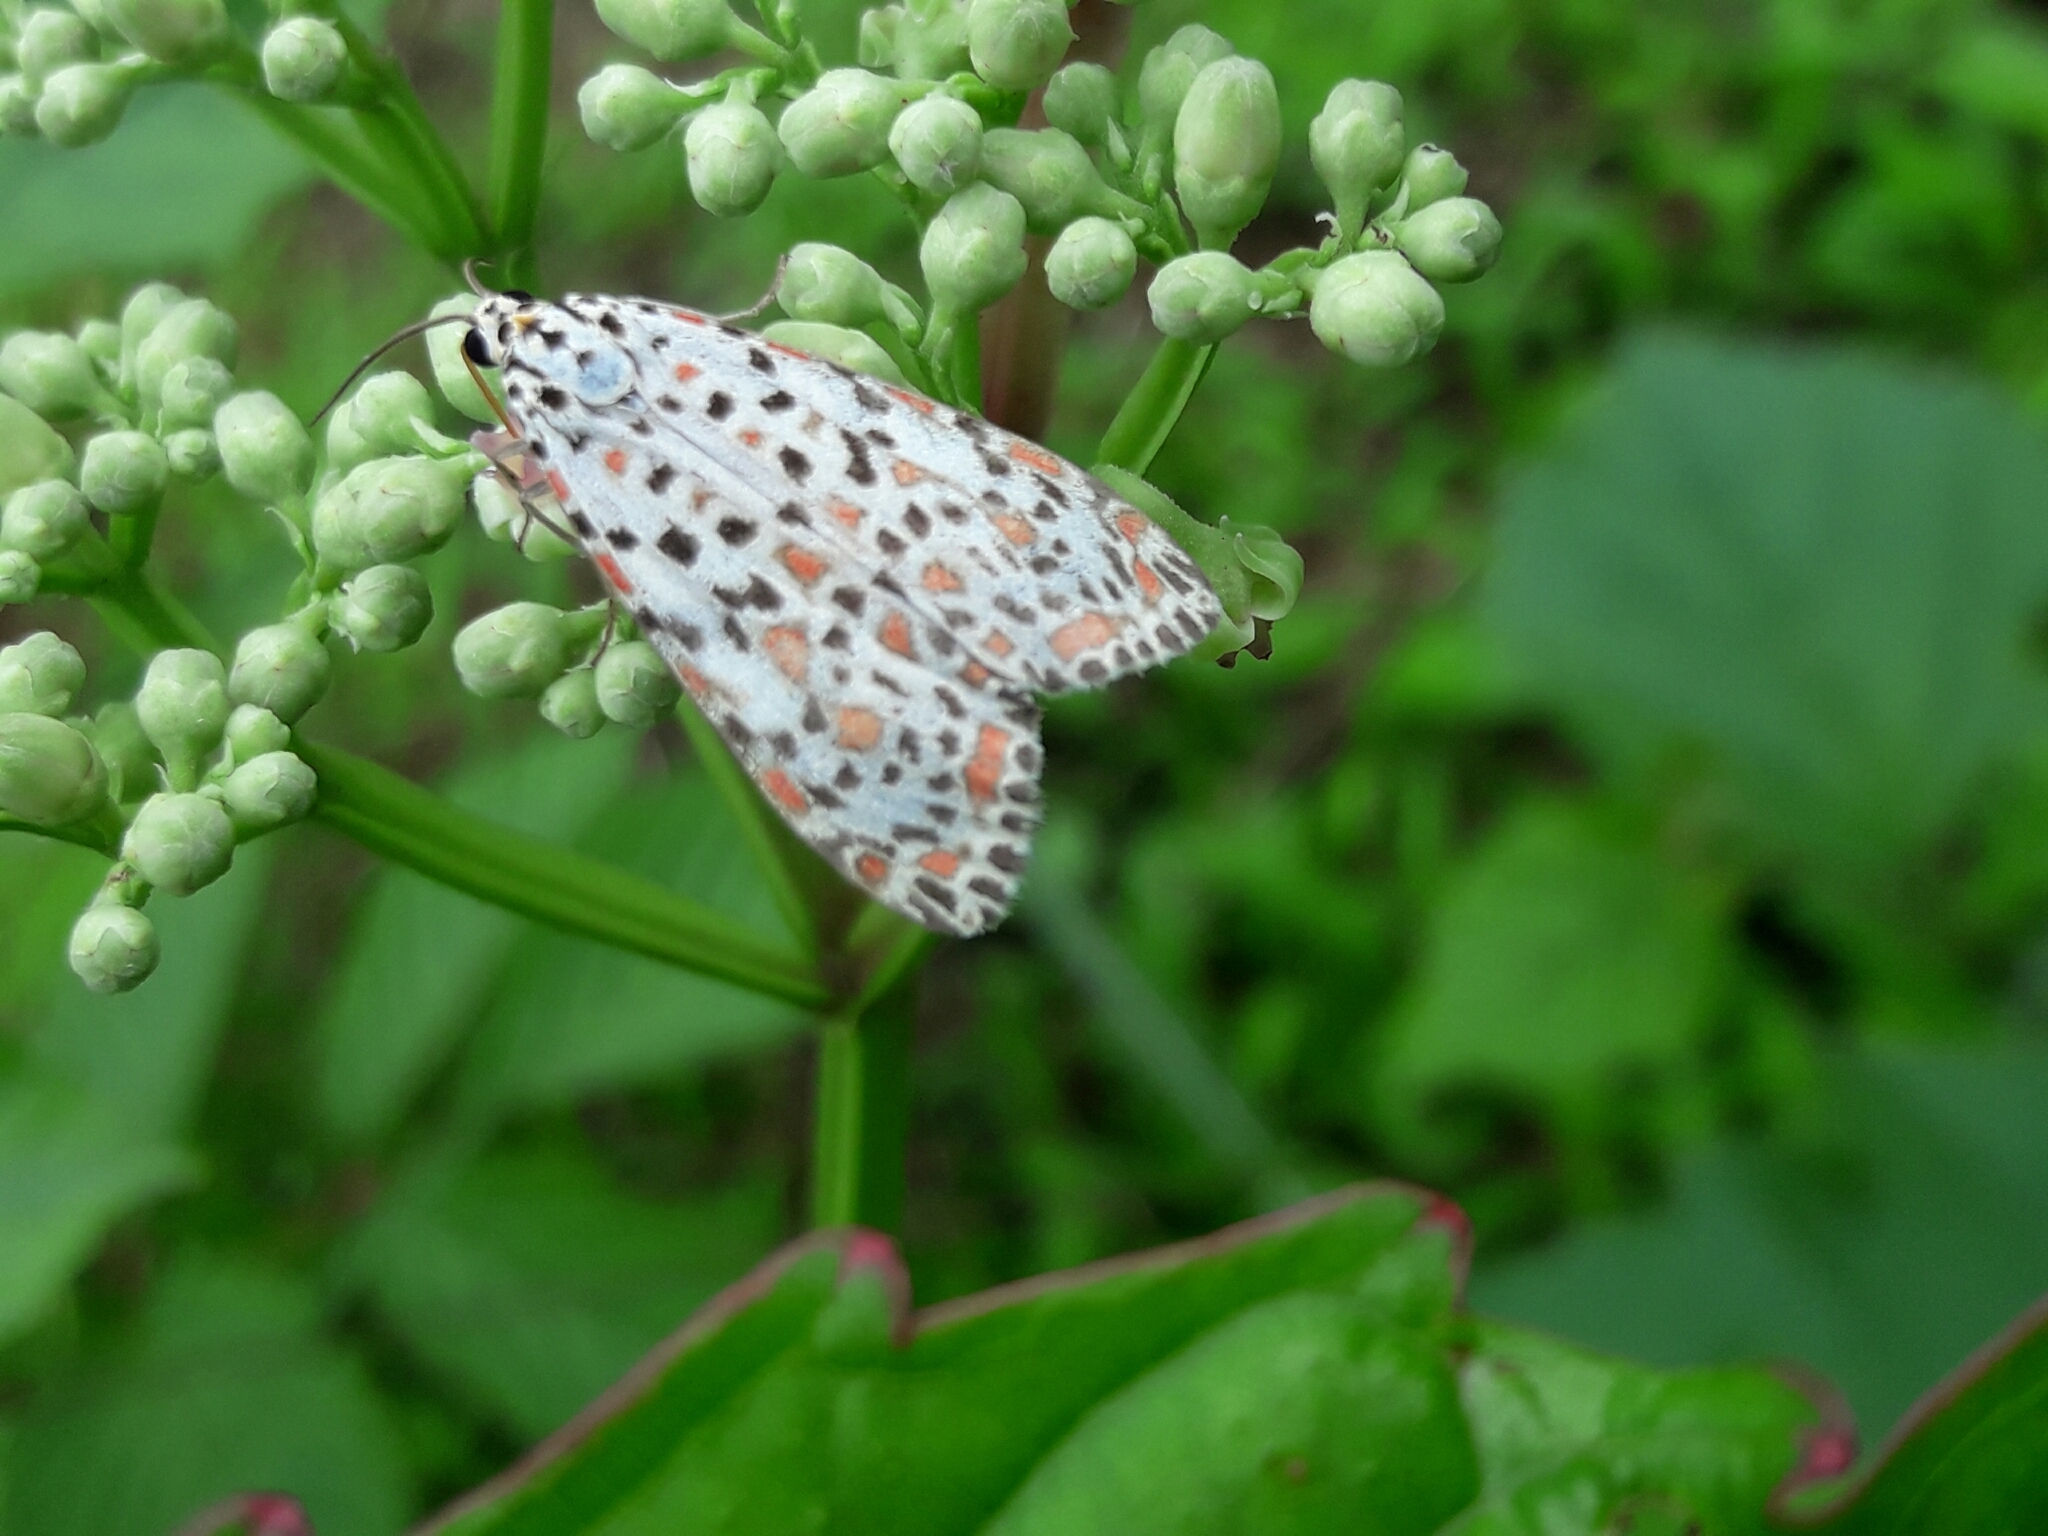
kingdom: Animalia
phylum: Arthropoda
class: Insecta
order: Lepidoptera
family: Erebidae
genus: Utetheisa
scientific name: Utetheisa pulchelloides
